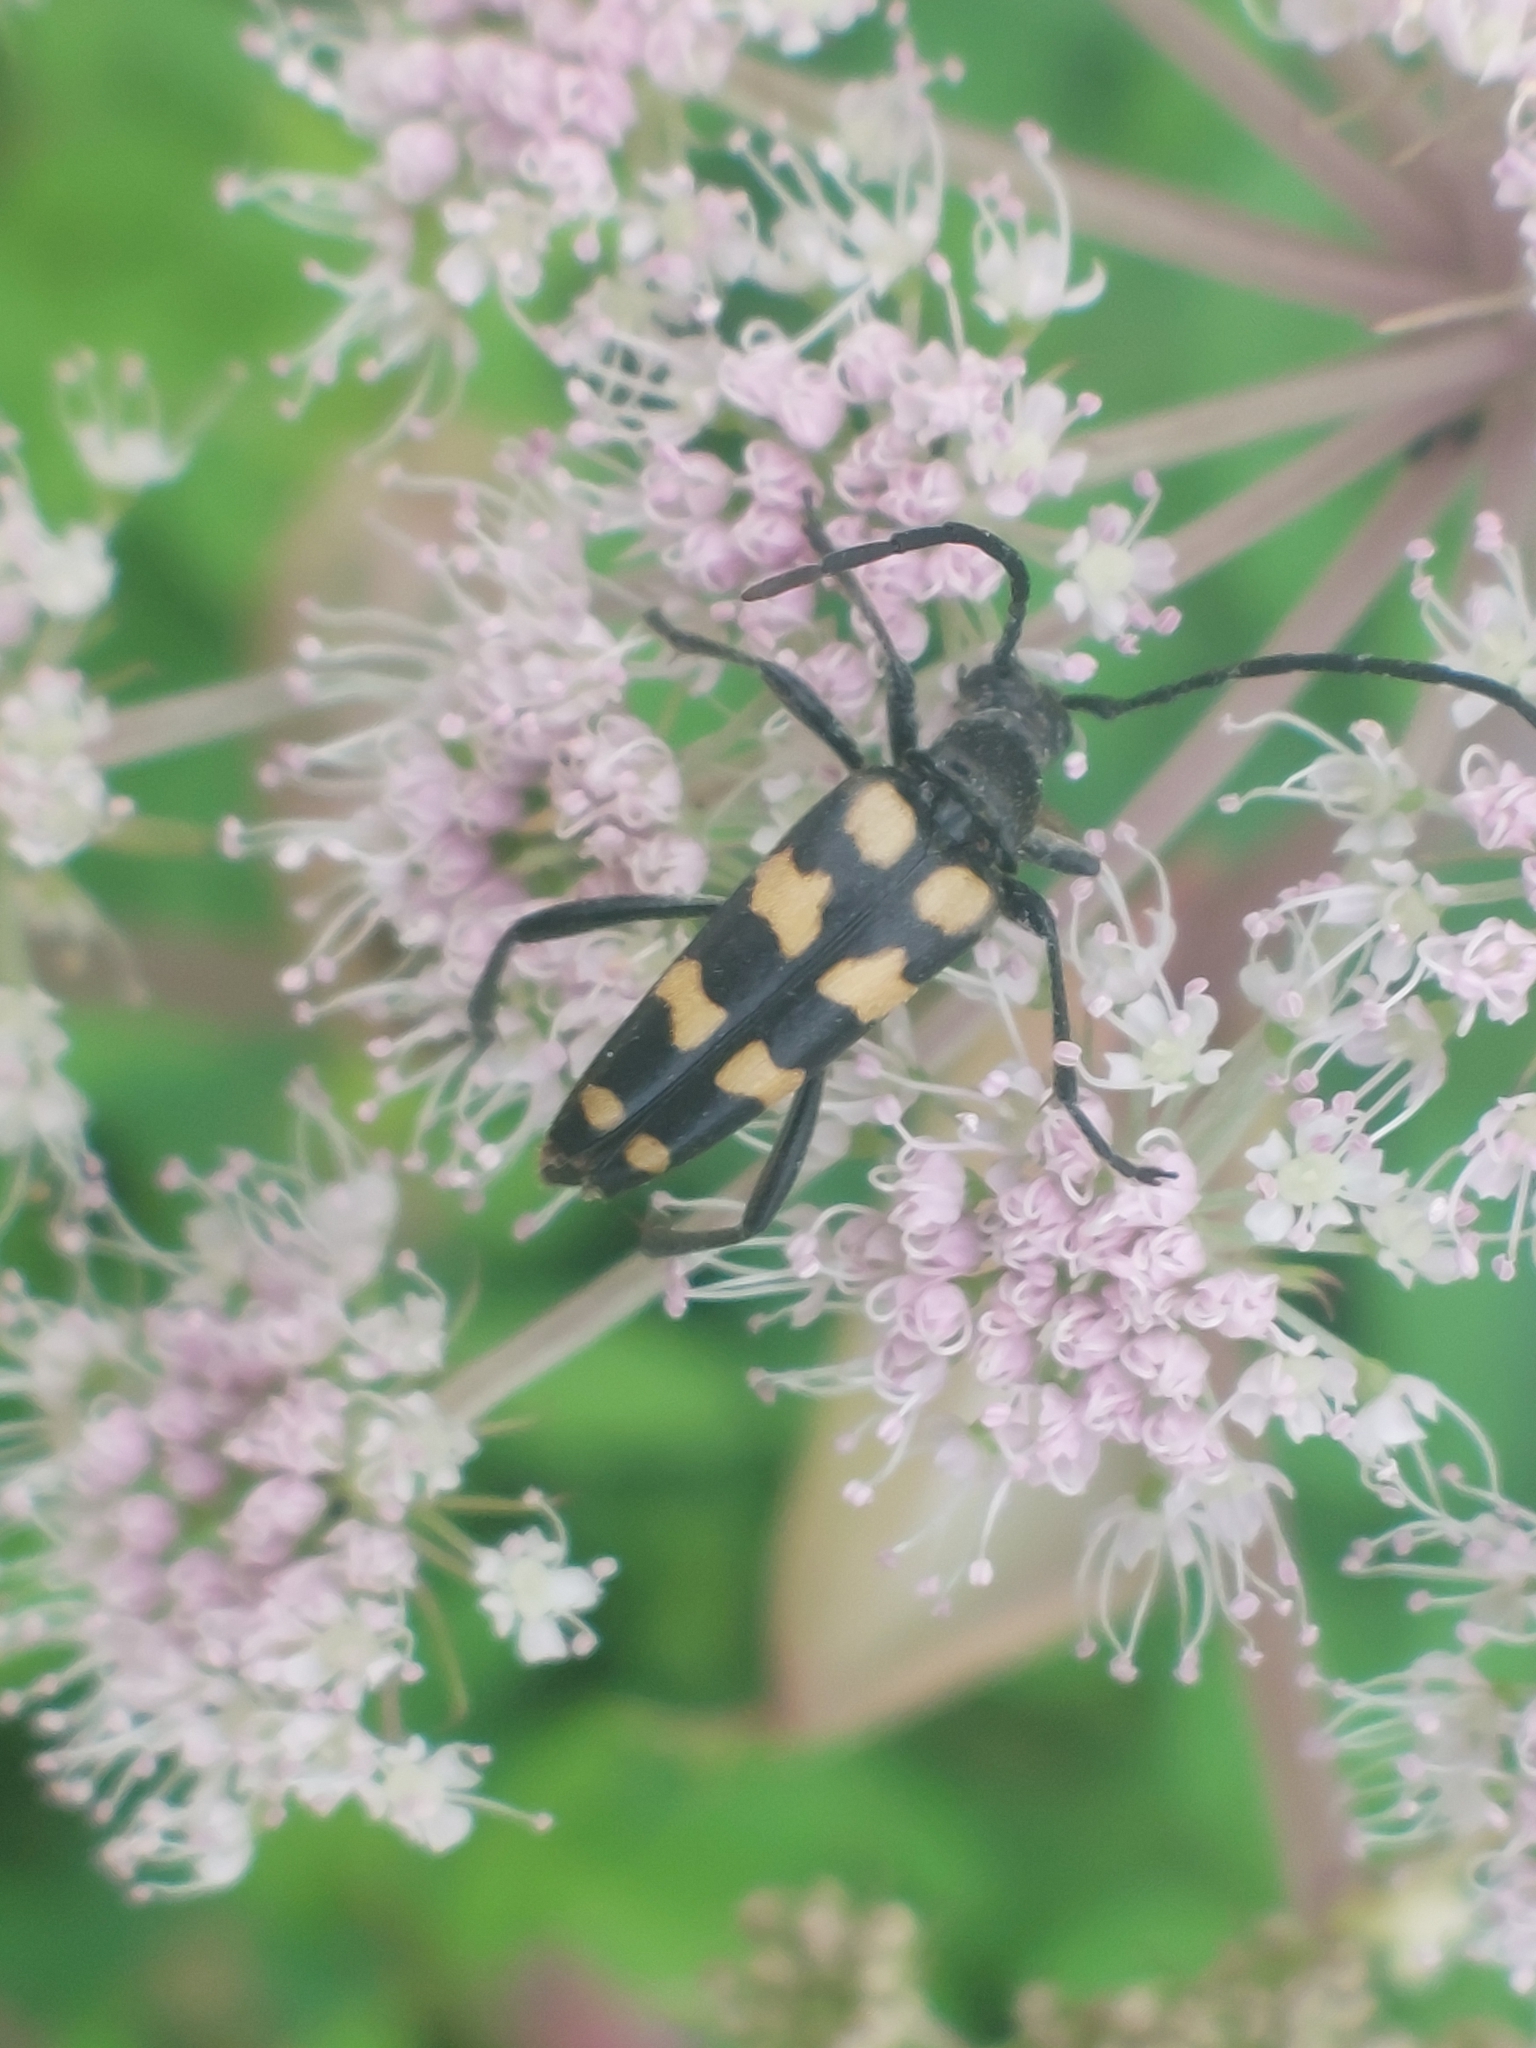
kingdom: Animalia
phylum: Arthropoda
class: Insecta
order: Coleoptera
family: Cerambycidae
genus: Leptura
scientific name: Leptura quadrifasciata
